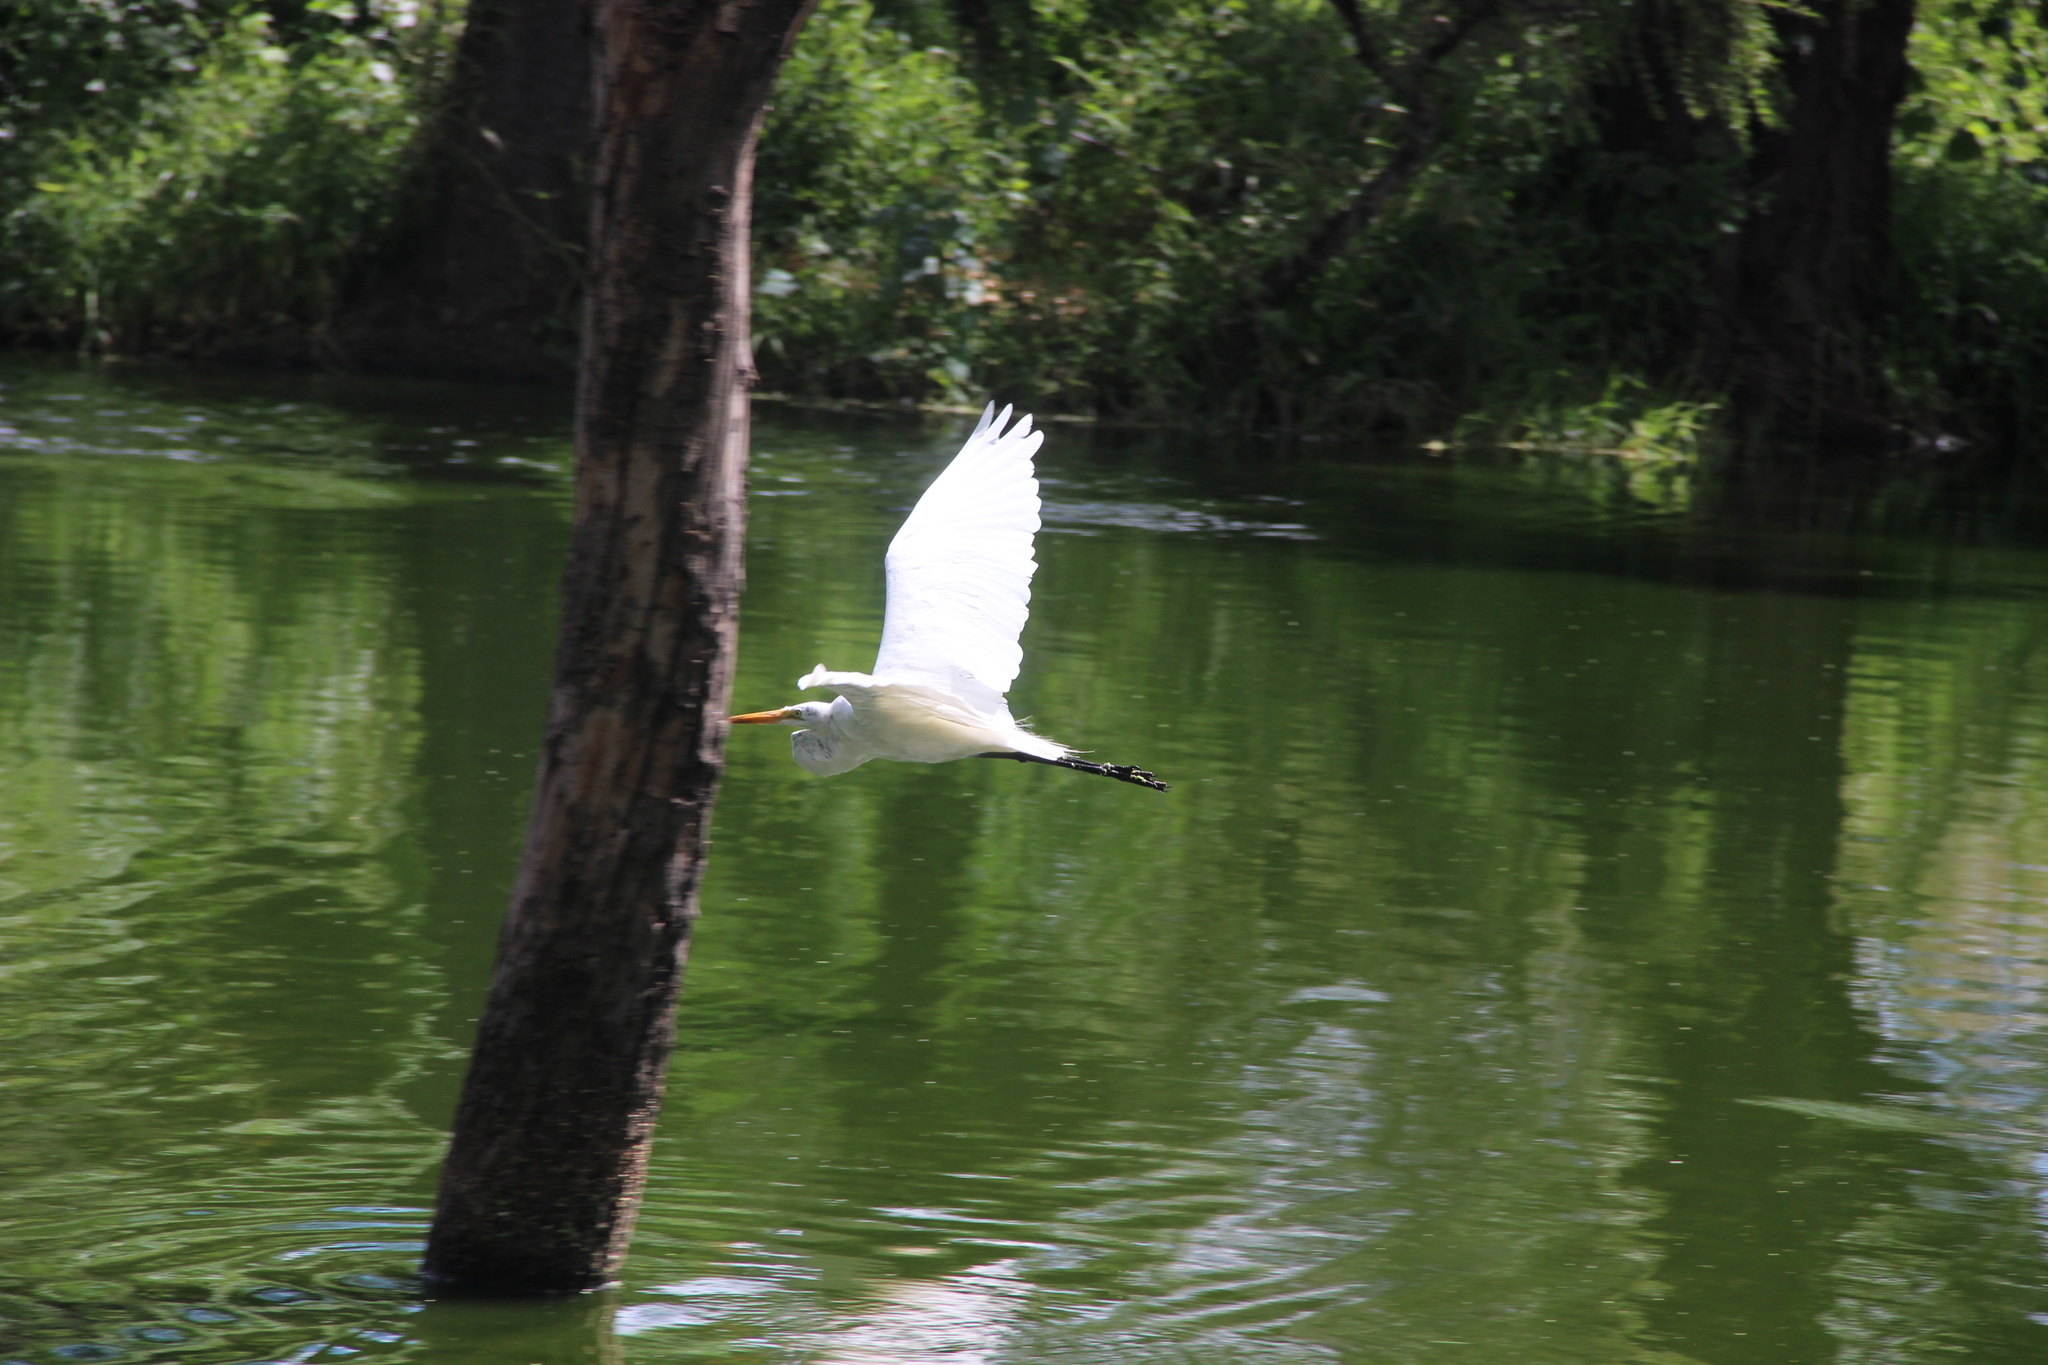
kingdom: Animalia
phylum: Chordata
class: Aves
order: Pelecaniformes
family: Ardeidae
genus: Ardea
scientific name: Ardea alba
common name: Great egret
